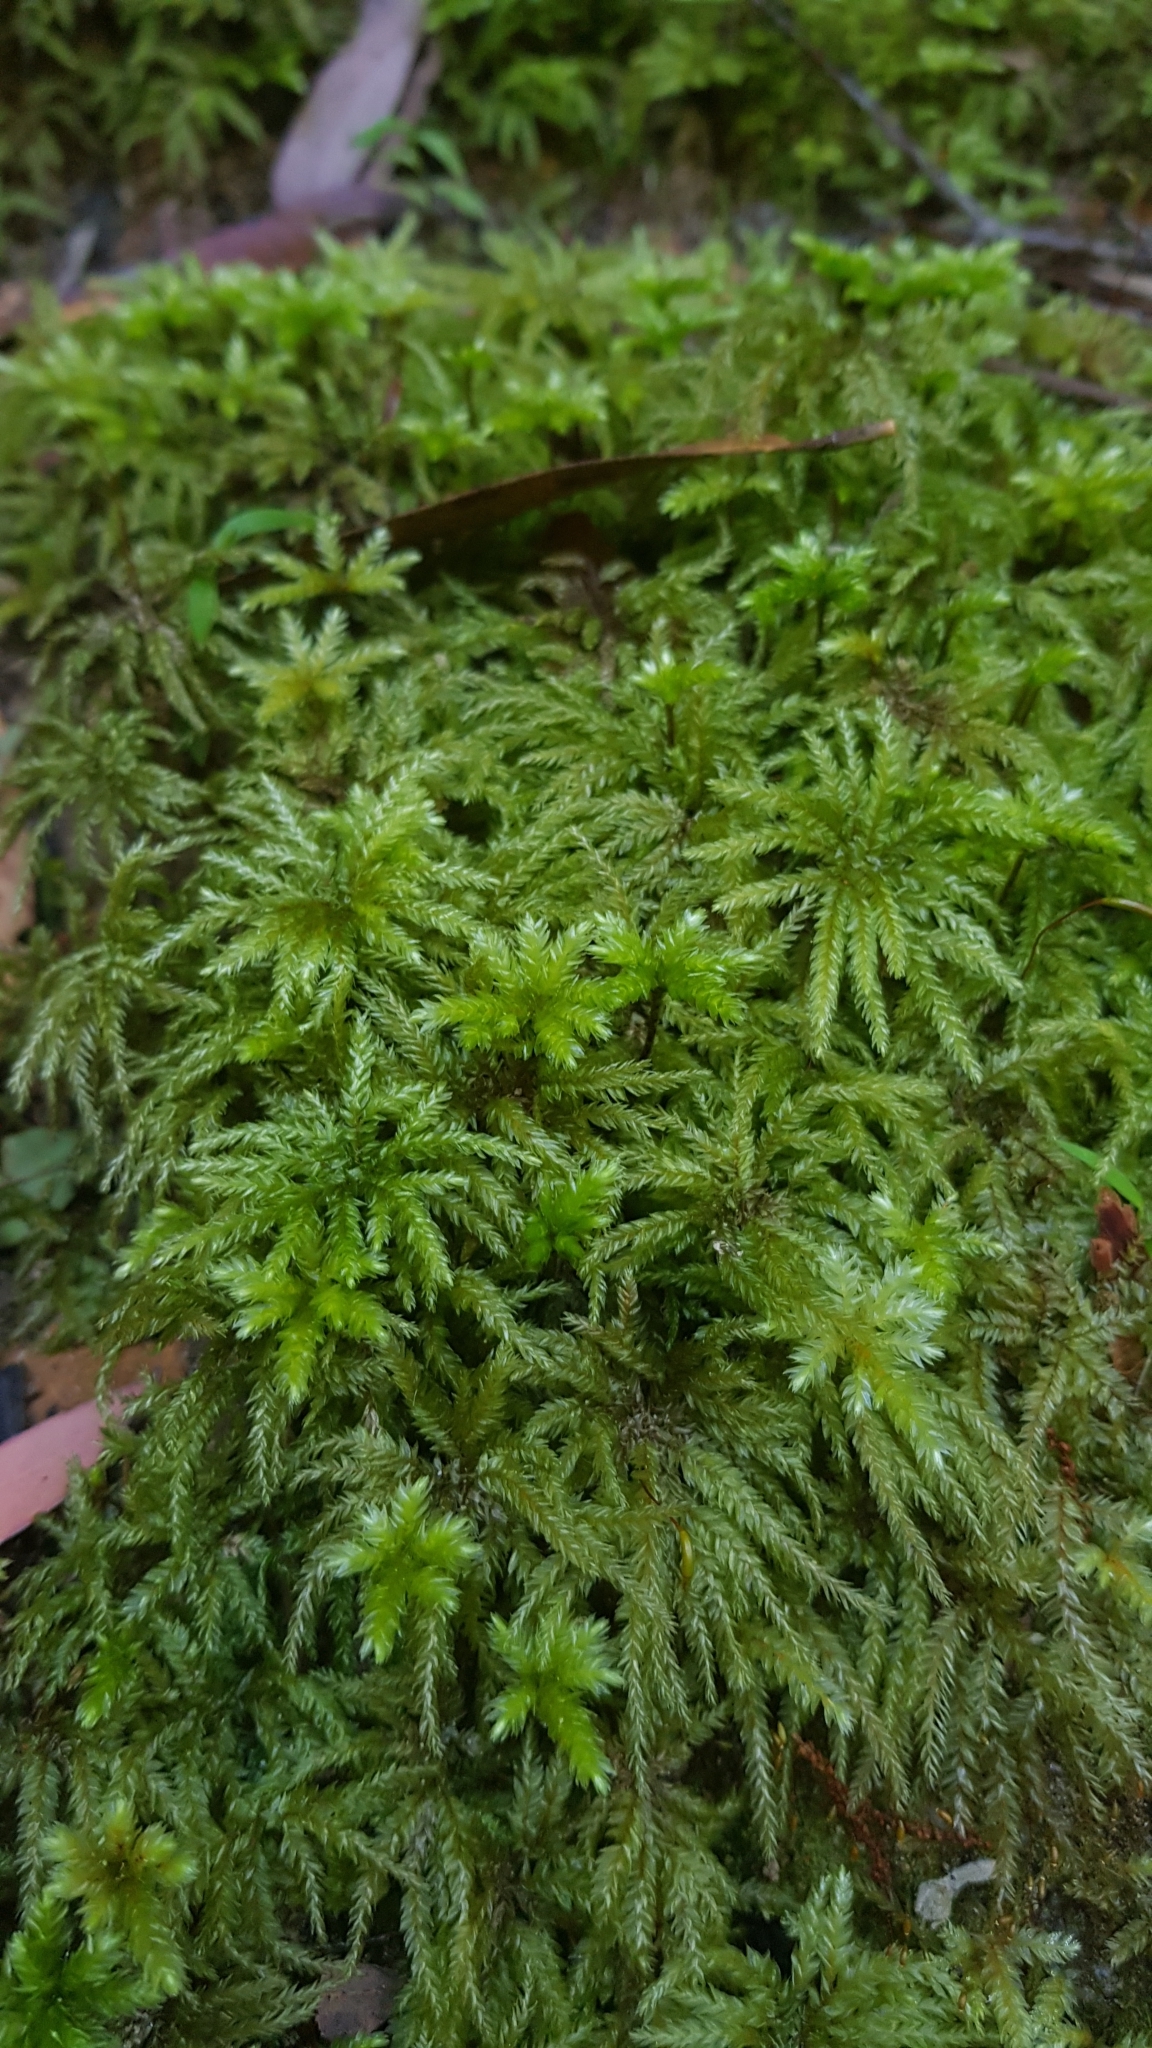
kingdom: Plantae
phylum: Bryophyta
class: Bryopsida
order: Hypnodendrales
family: Spiridentaceae
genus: Hypnodendron
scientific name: Hypnodendron vitiense
